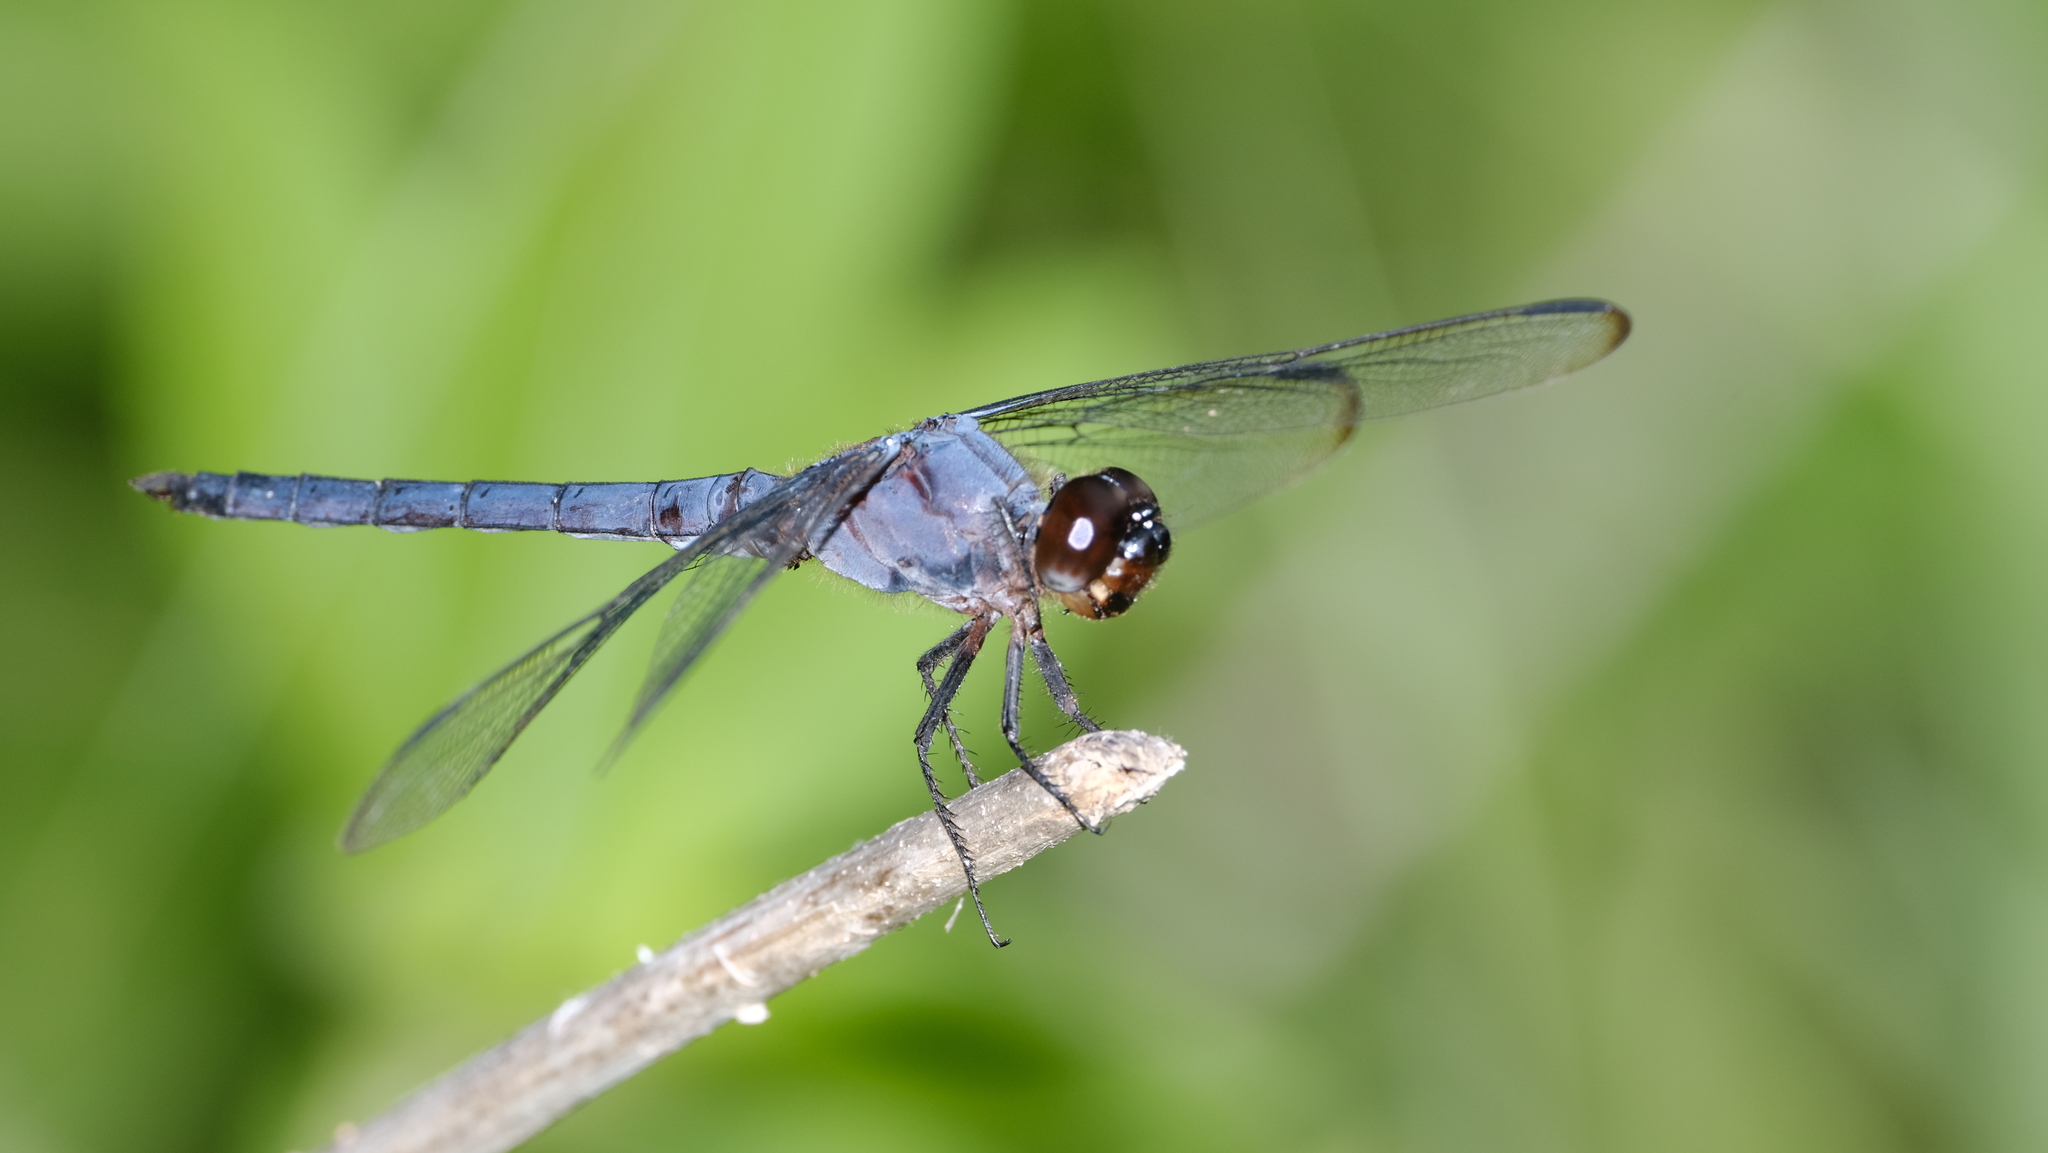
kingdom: Animalia
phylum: Arthropoda
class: Insecta
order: Odonata
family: Libellulidae
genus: Libellula
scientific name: Libellula incesta
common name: Slaty skimmer
